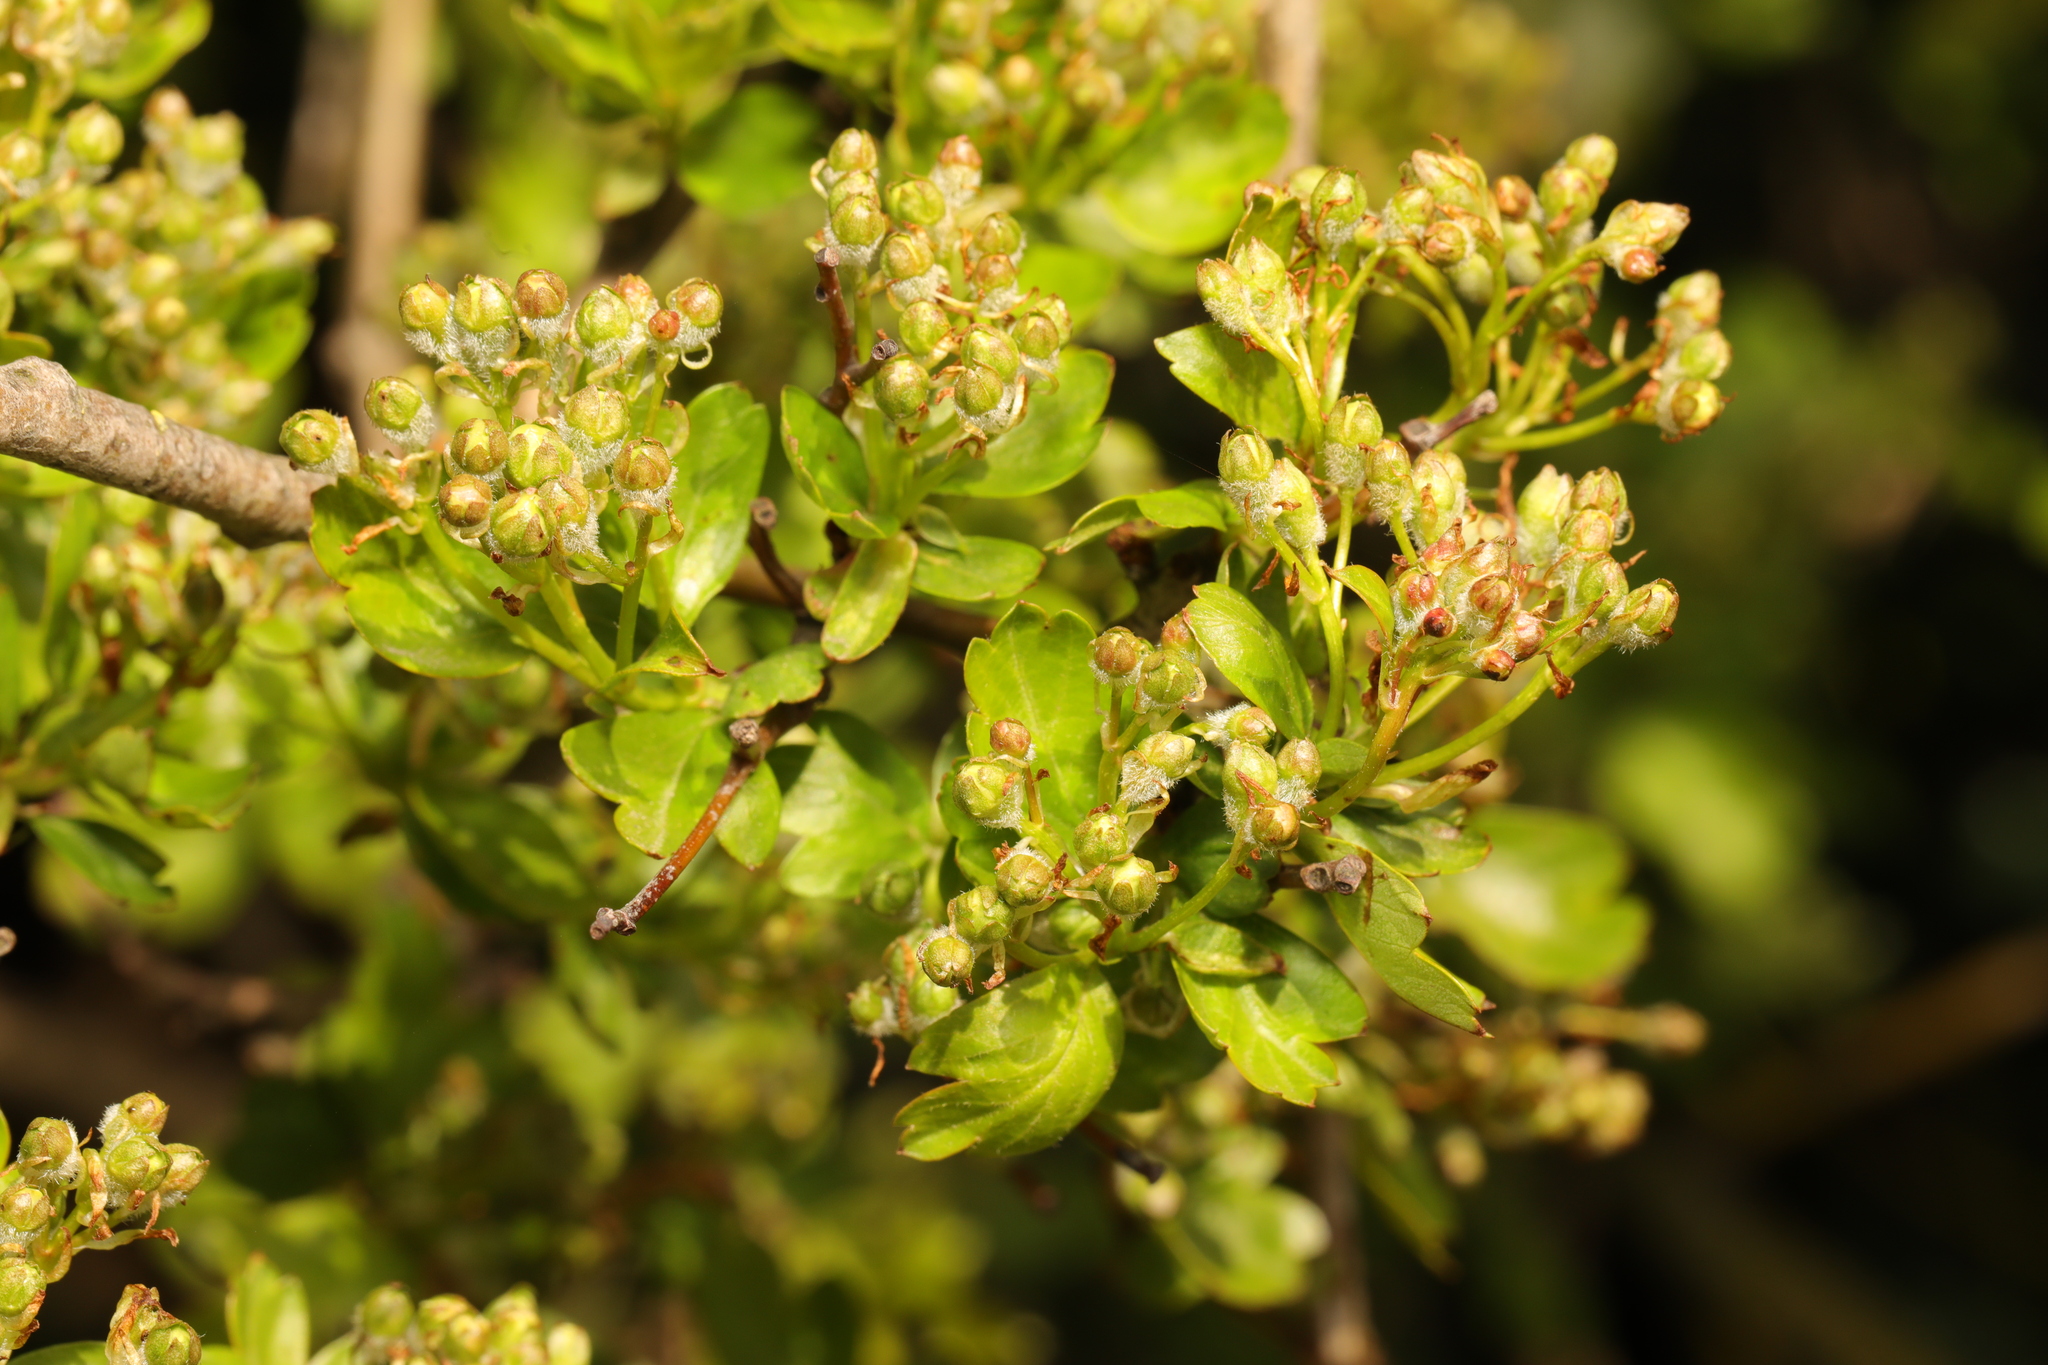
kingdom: Plantae
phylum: Tracheophyta
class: Magnoliopsida
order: Rosales
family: Rosaceae
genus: Crataegus
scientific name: Crataegus monogyna
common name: Hawthorn
